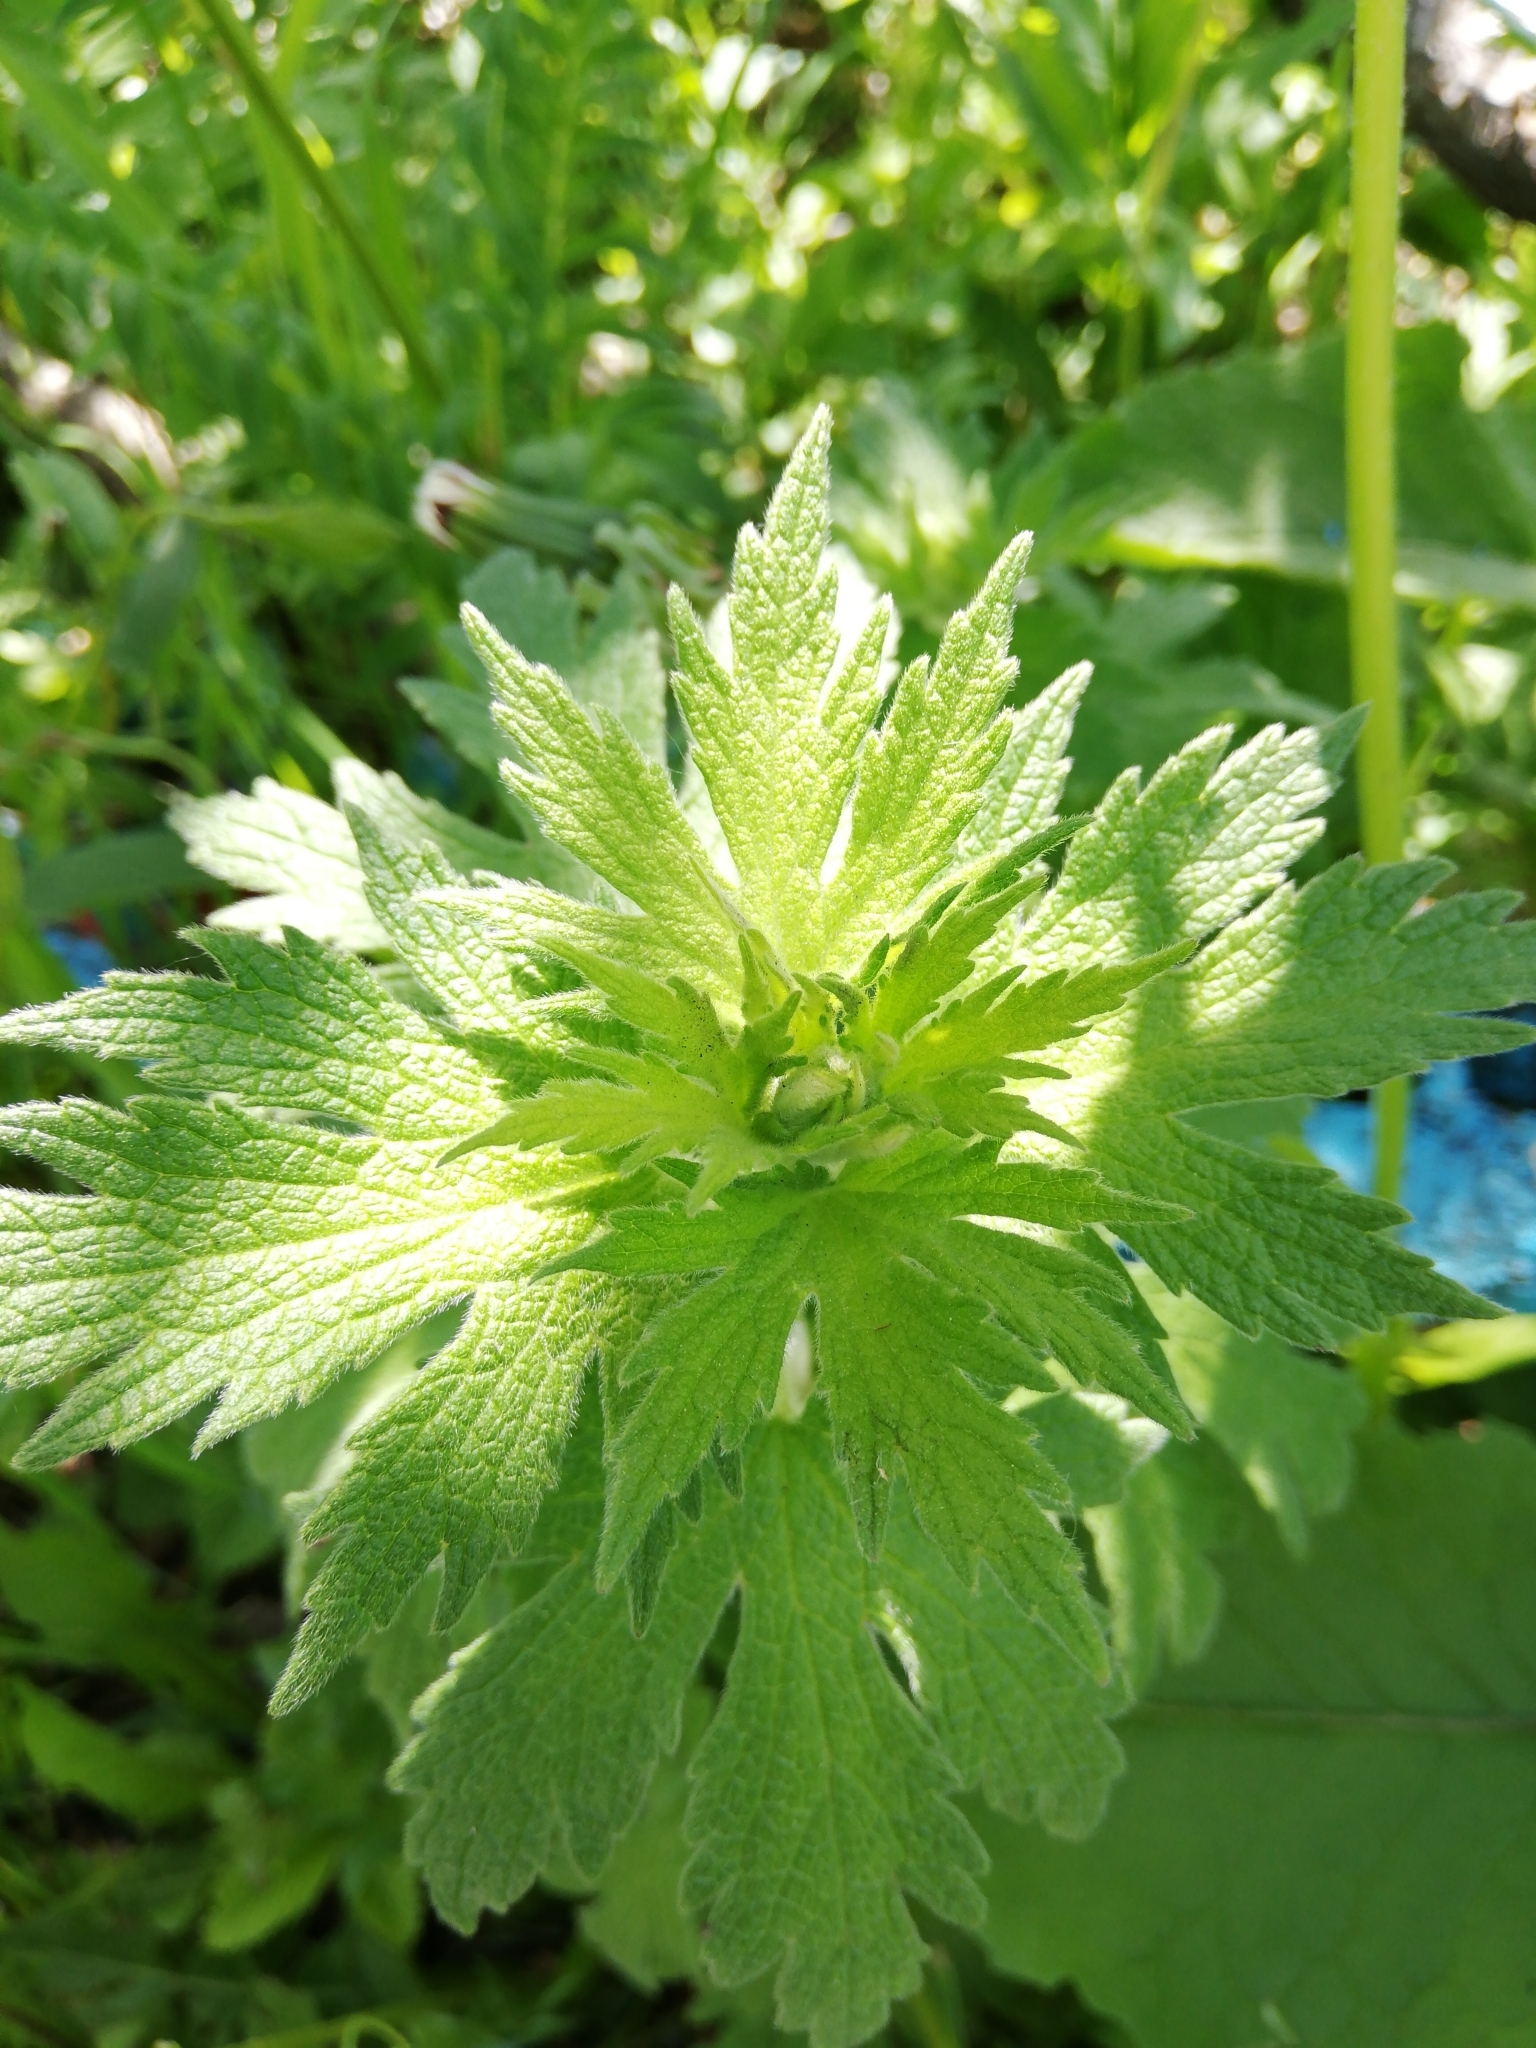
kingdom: Plantae
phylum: Tracheophyta
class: Magnoliopsida
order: Lamiales
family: Lamiaceae
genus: Leonurus
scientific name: Leonurus quinquelobatus
